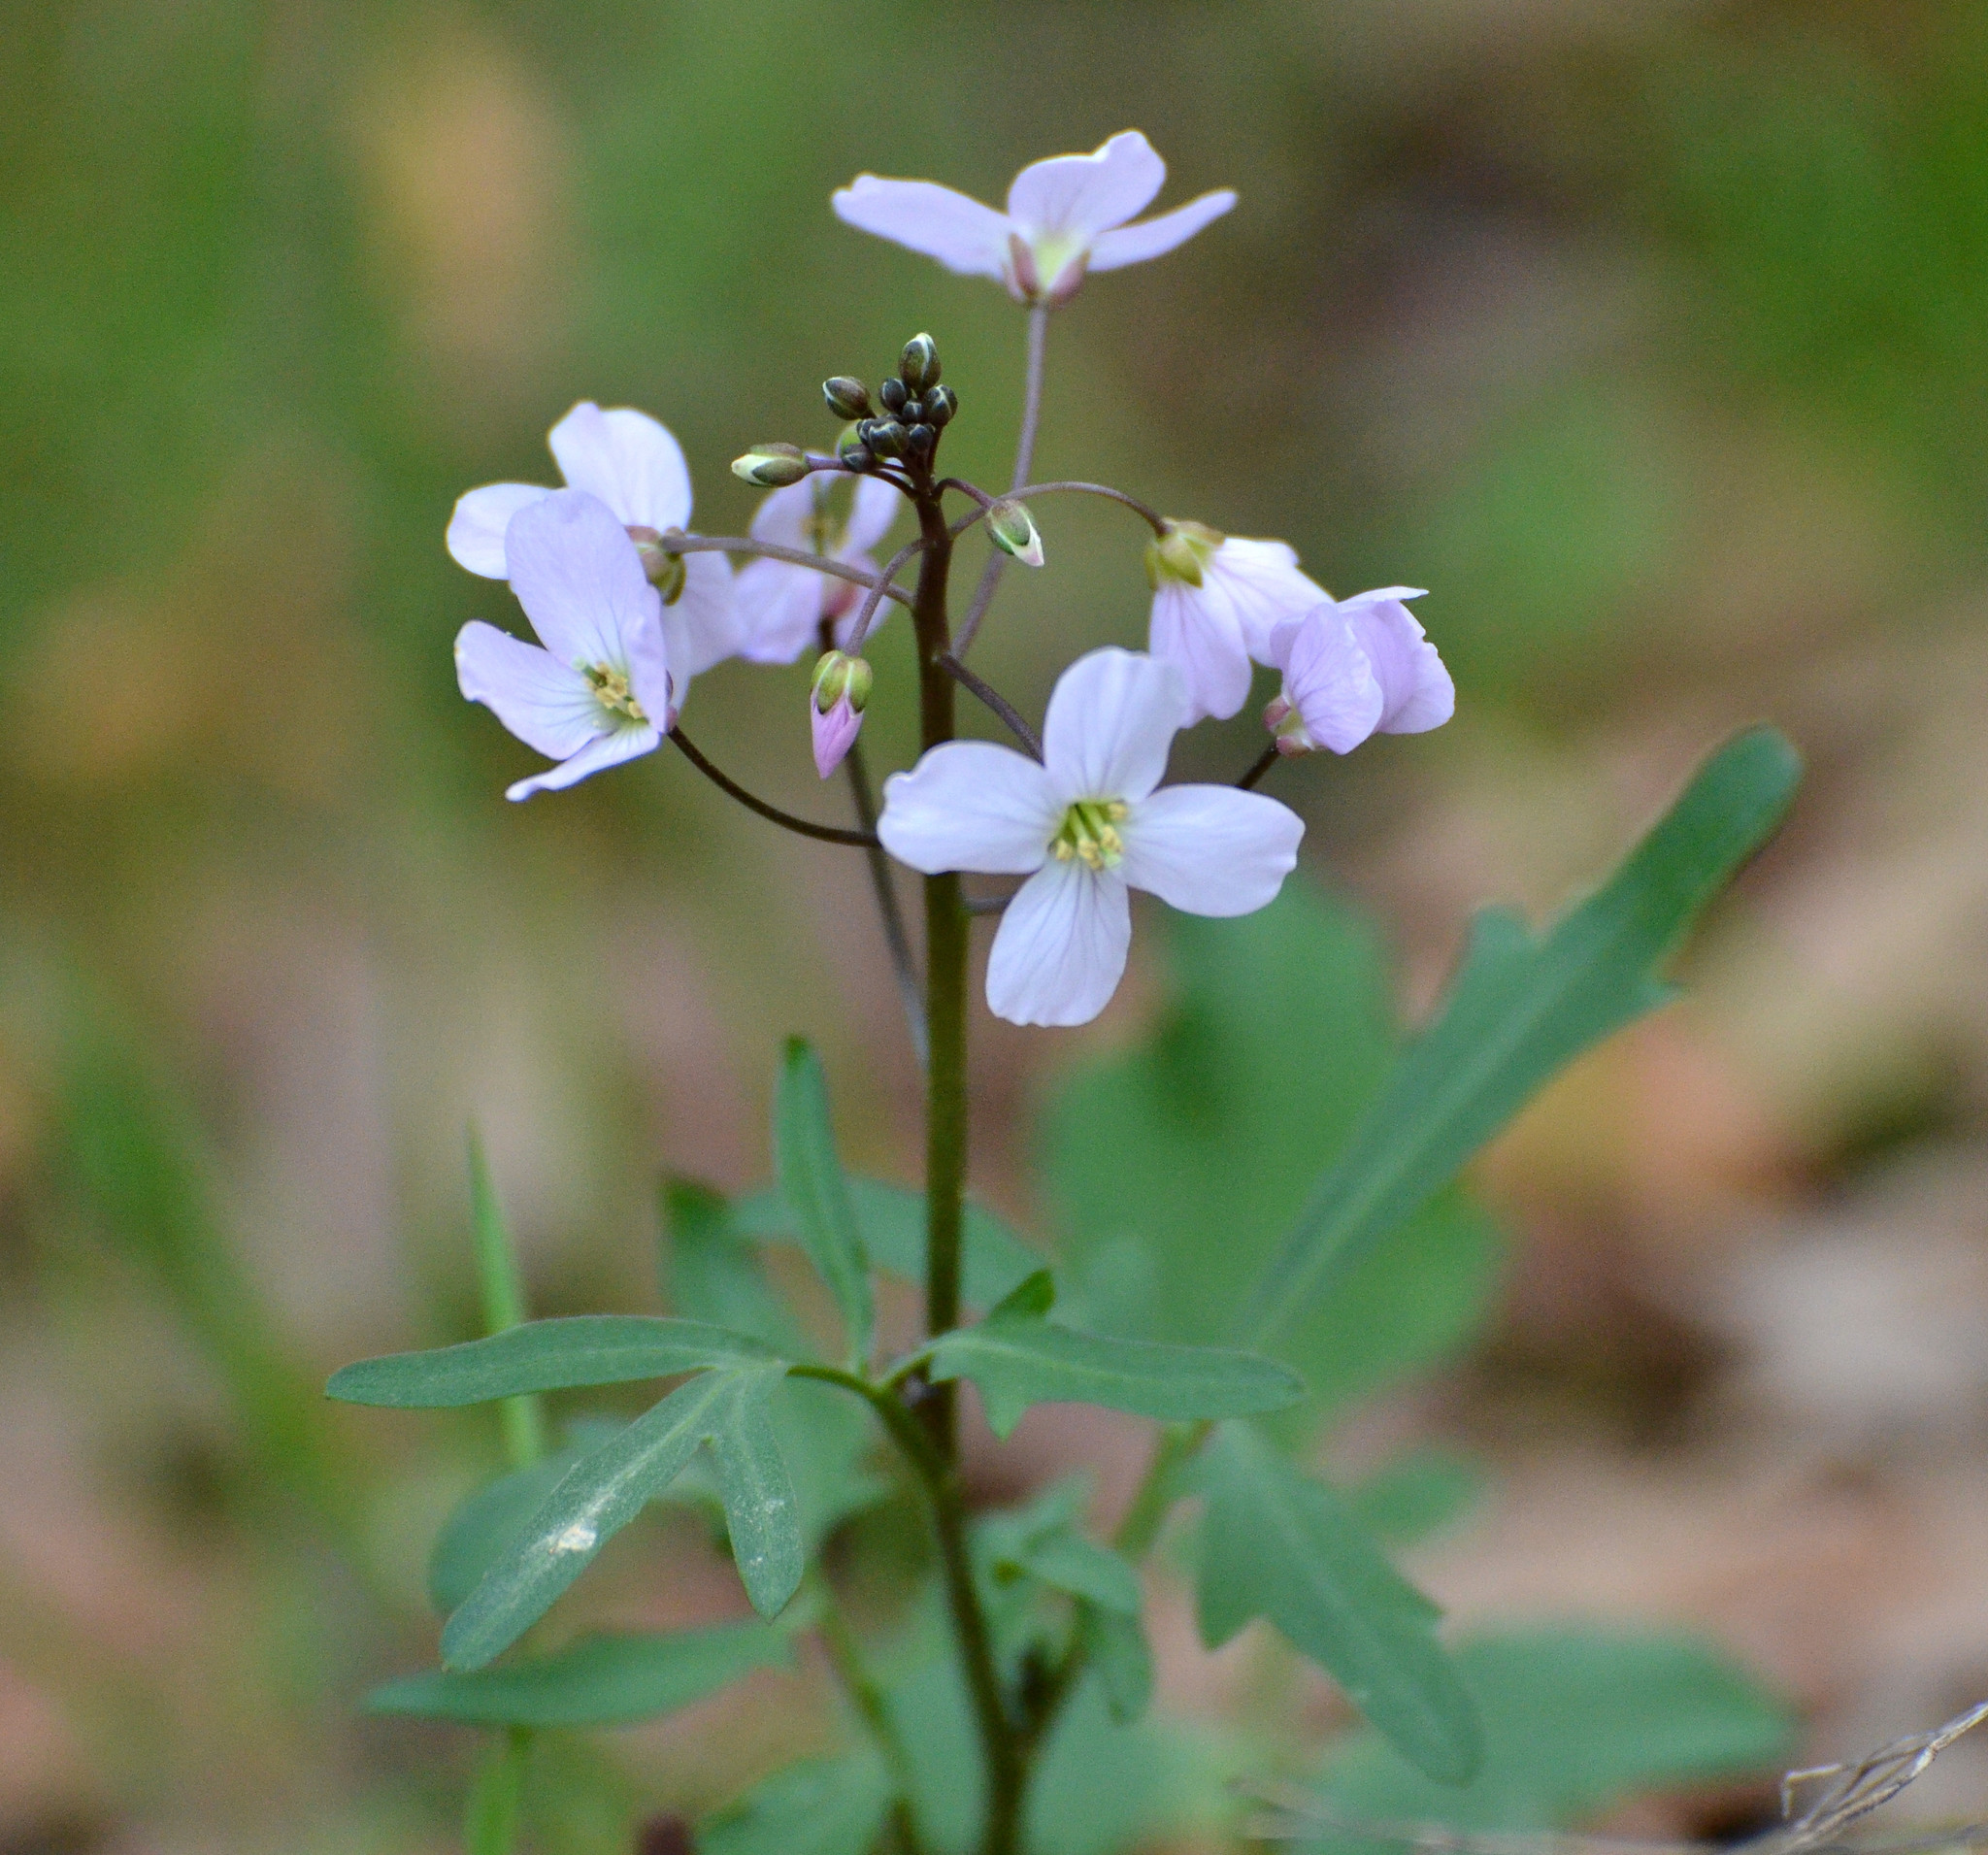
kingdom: Plantae
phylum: Tracheophyta
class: Magnoliopsida
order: Brassicales
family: Brassicaceae
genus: Cardamine
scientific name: Cardamine californica
